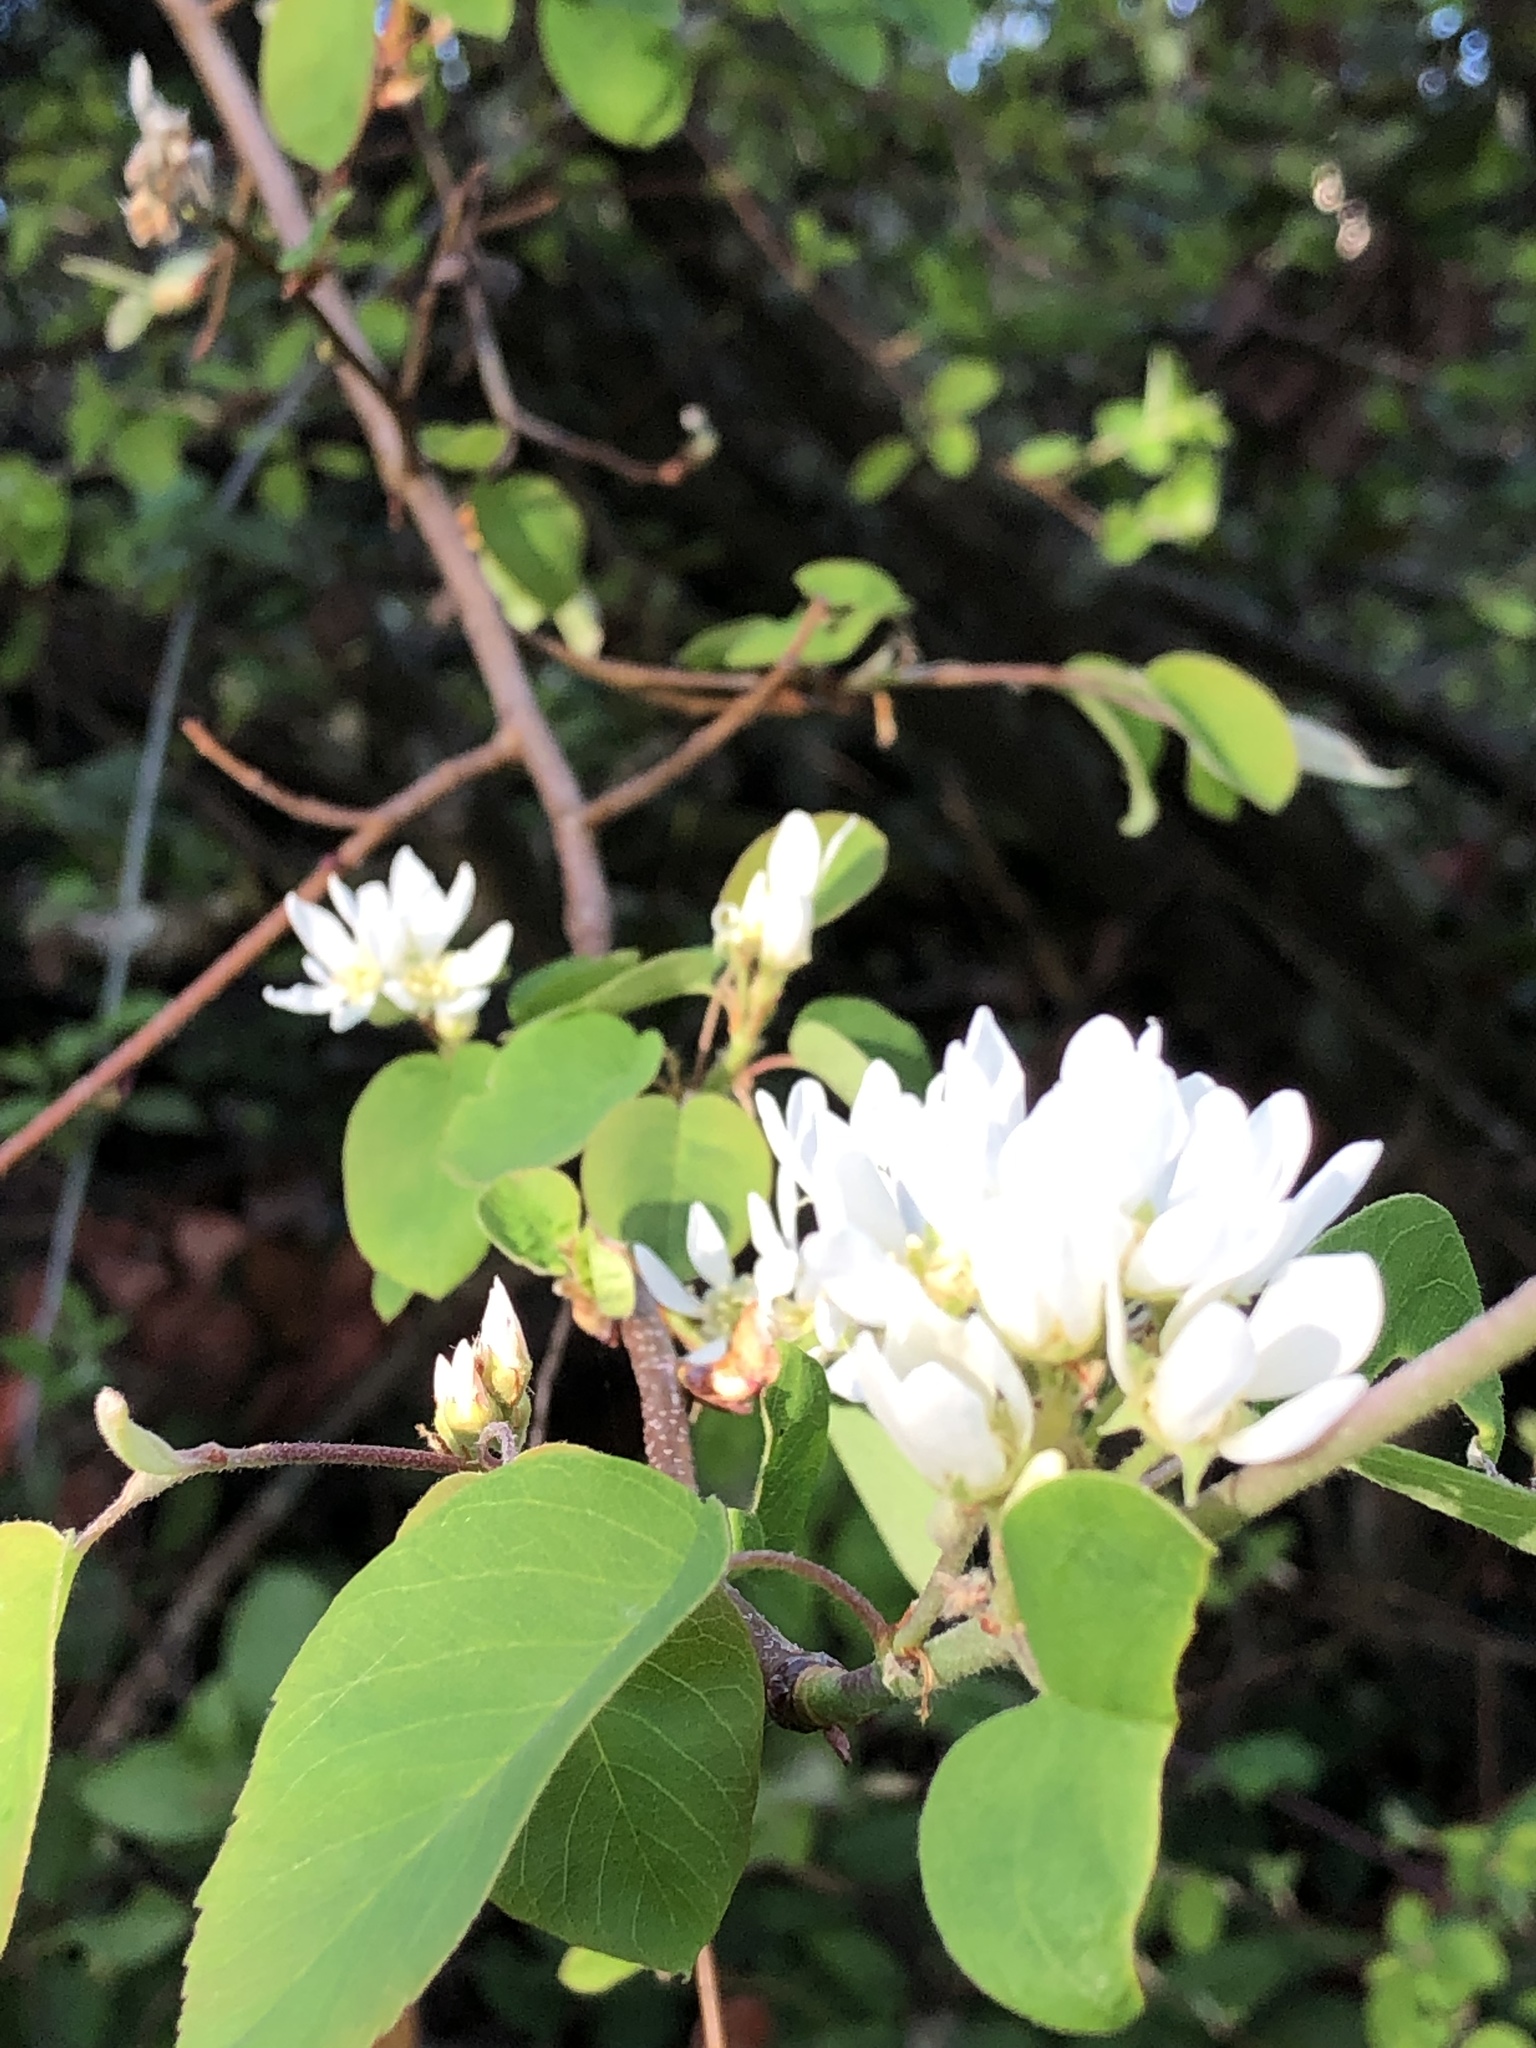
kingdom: Plantae
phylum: Tracheophyta
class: Magnoliopsida
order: Rosales
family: Rosaceae
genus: Amelanchier
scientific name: Amelanchier alnifolia
